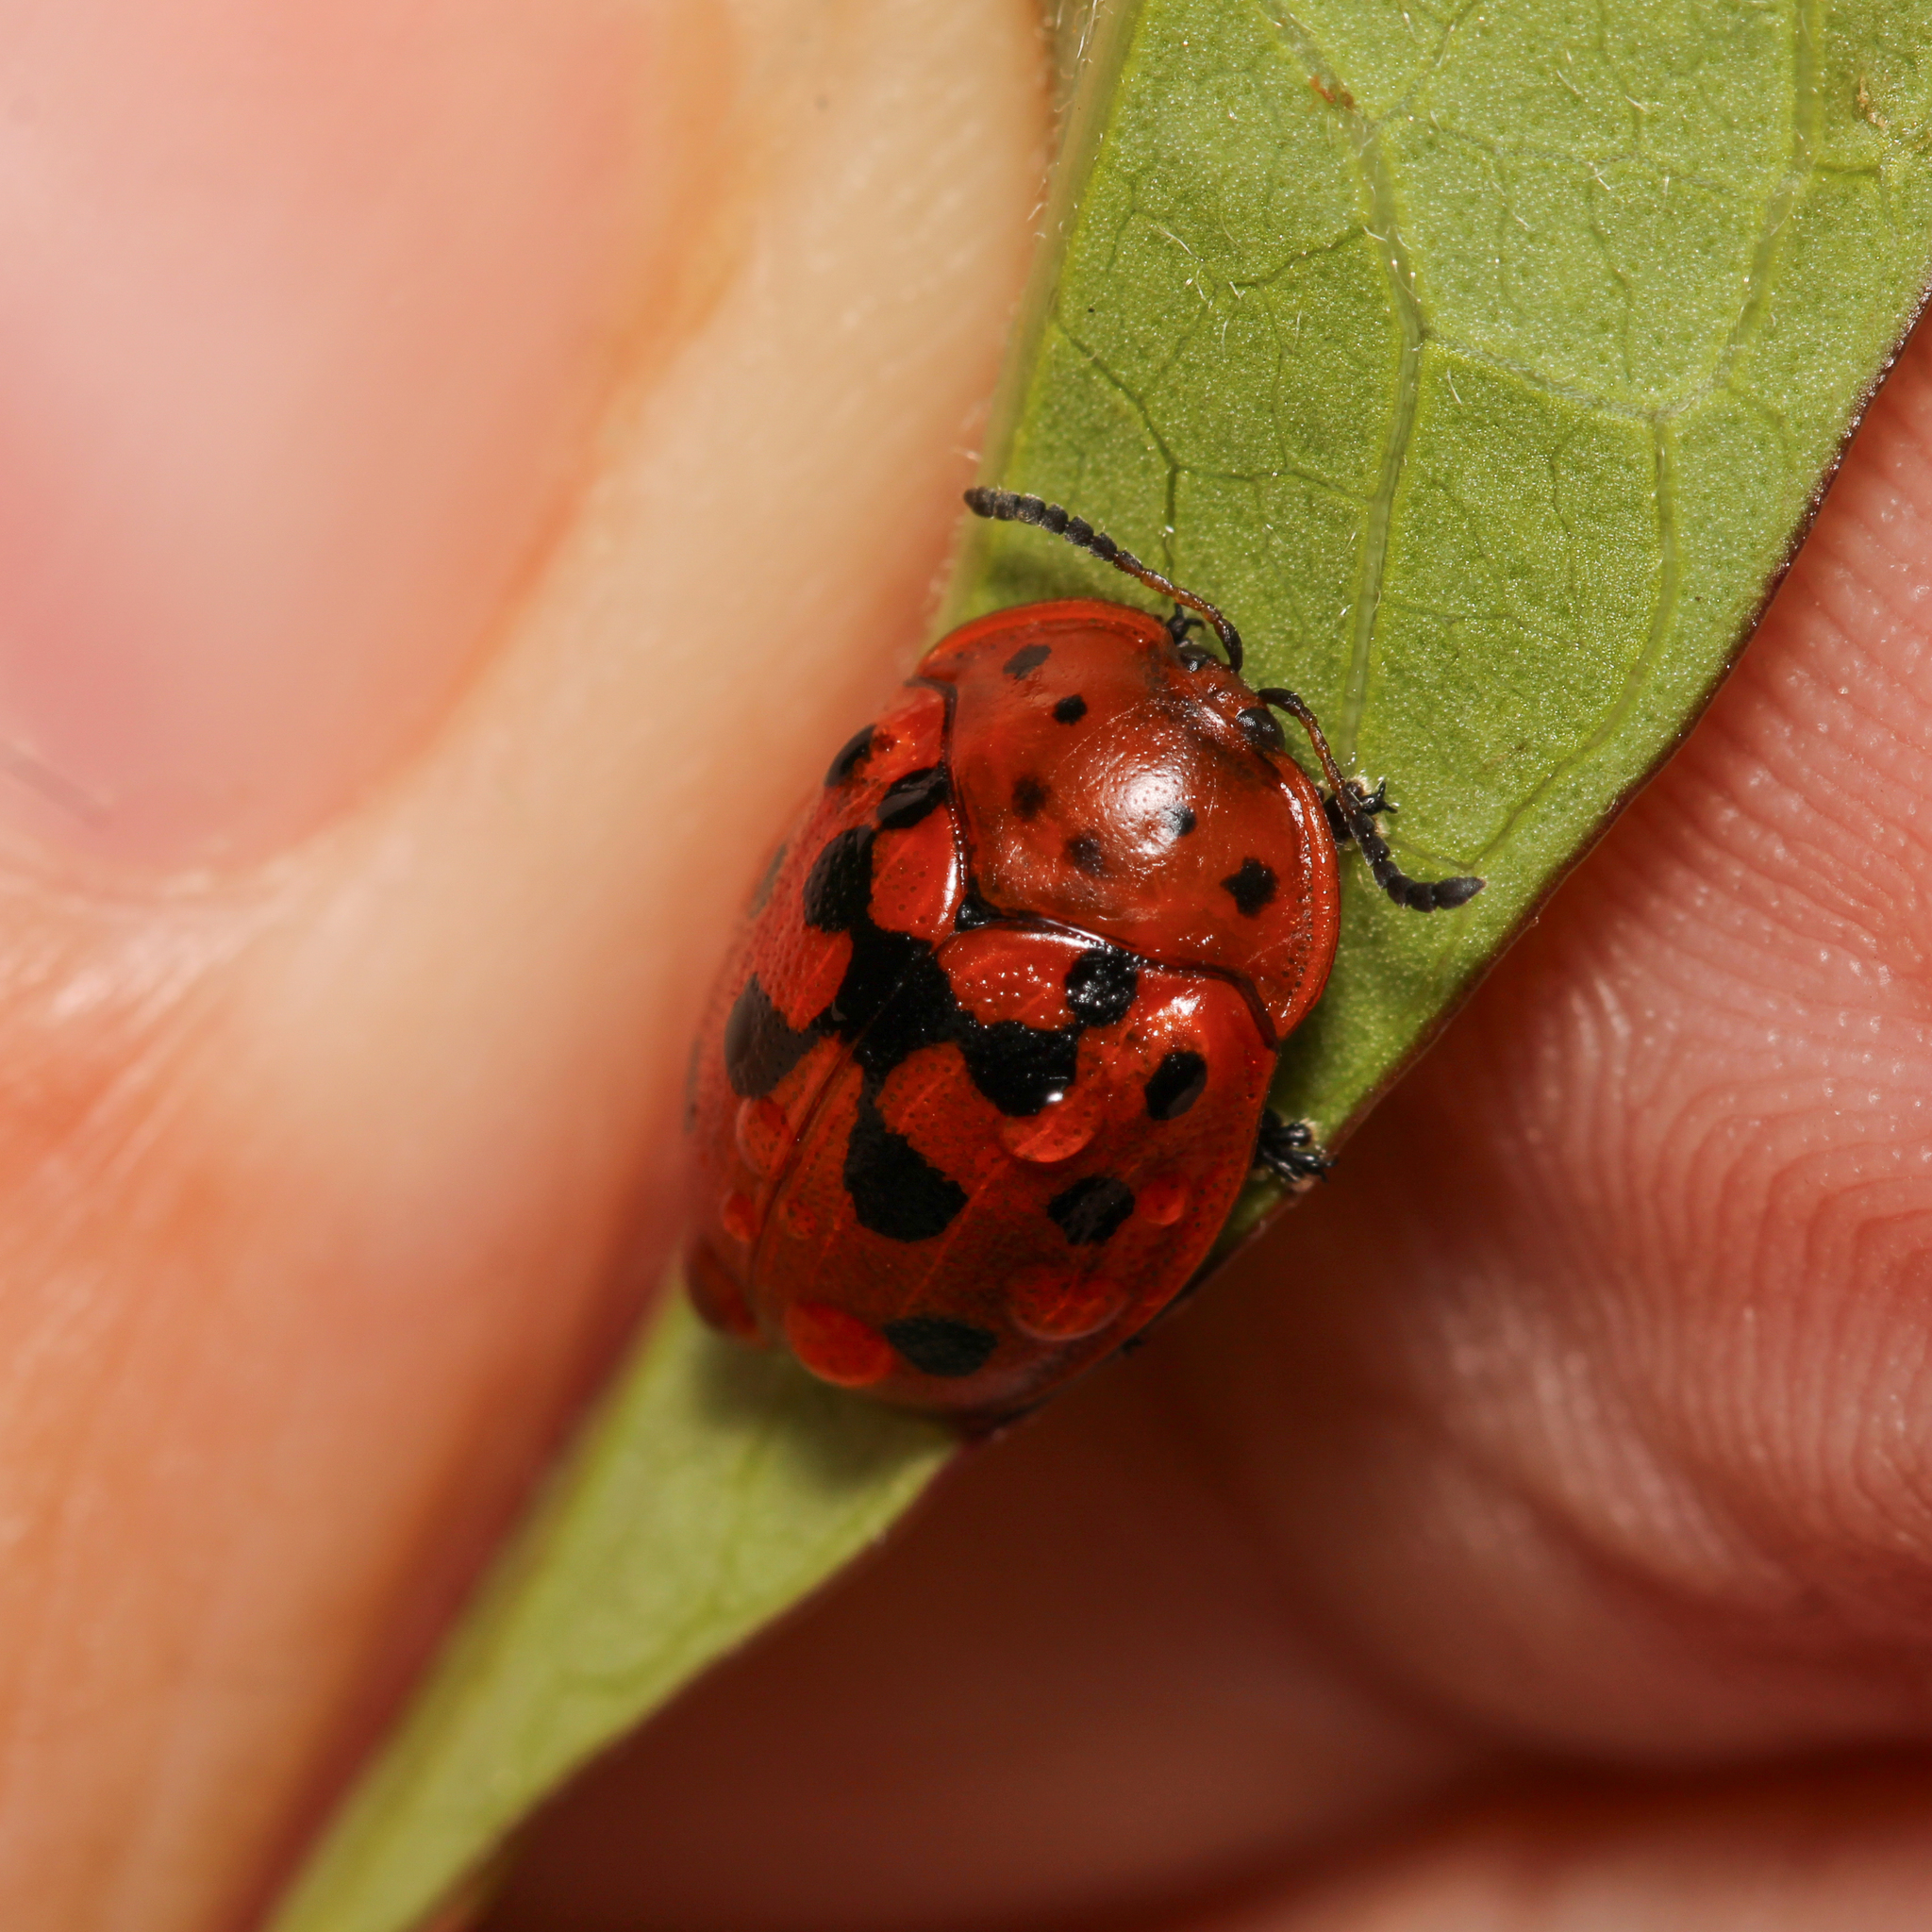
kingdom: Animalia
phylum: Arthropoda
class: Insecta
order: Coleoptera
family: Chrysomelidae
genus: Chelymorpha
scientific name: Chelymorpha cassidea
